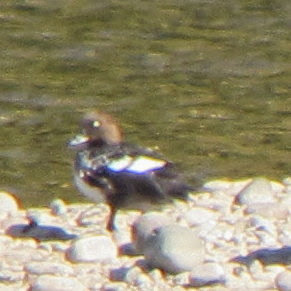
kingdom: Animalia
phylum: Chordata
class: Aves
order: Anseriformes
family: Anatidae
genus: Bucephala
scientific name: Bucephala clangula
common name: Common goldeneye
